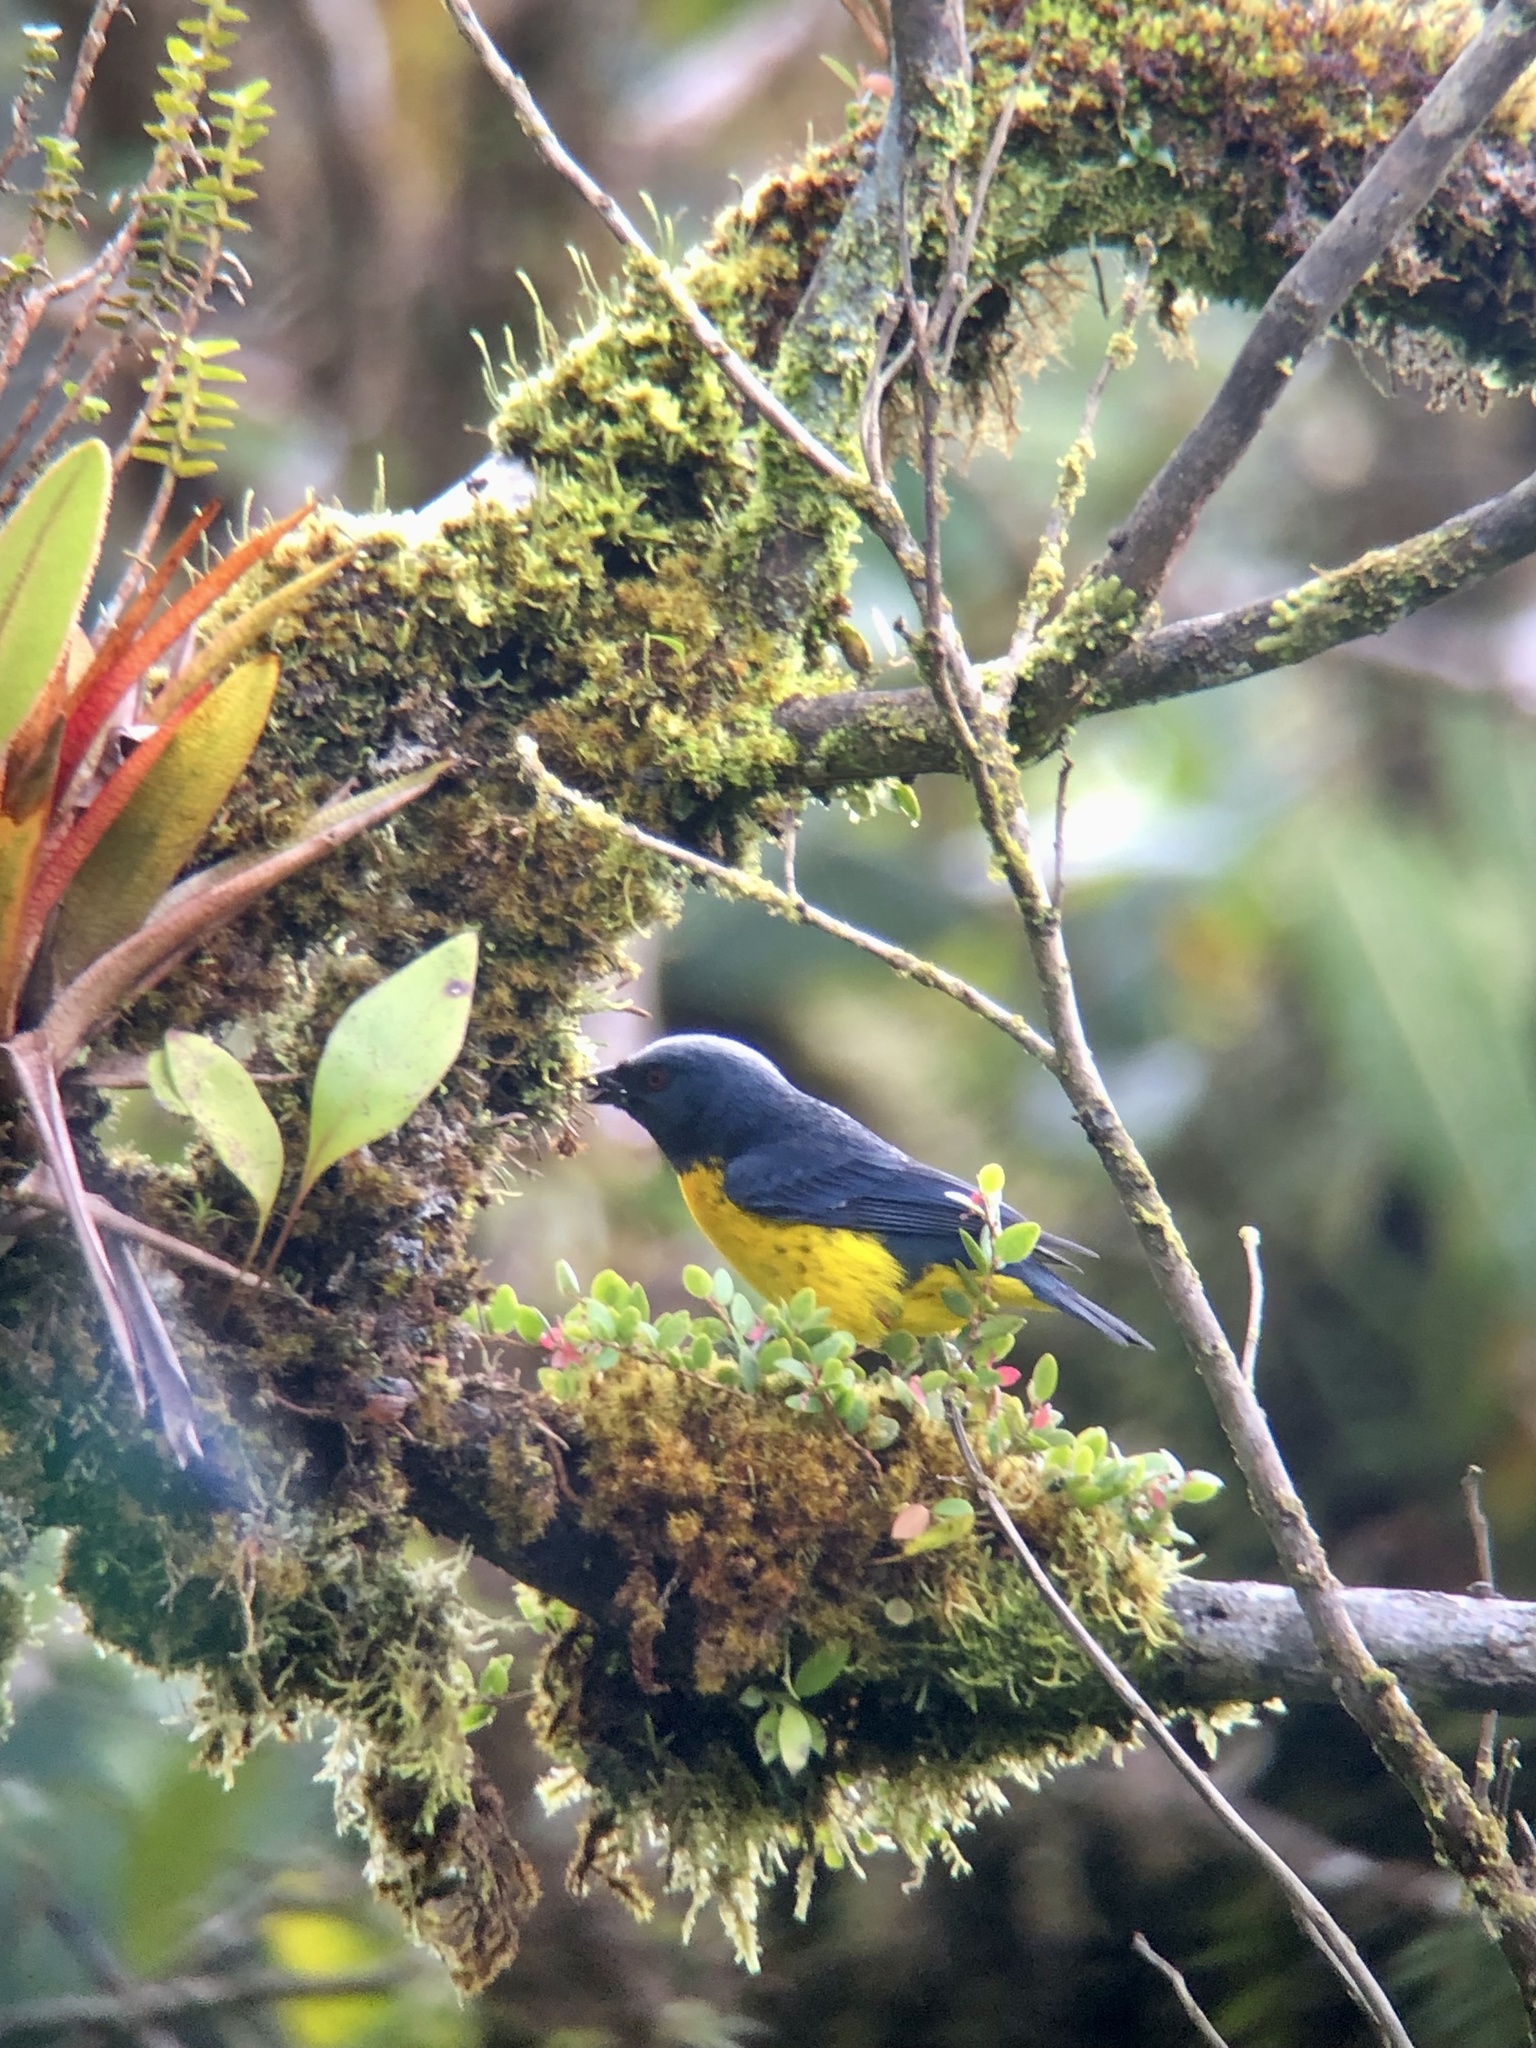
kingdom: Animalia
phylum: Chordata
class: Aves
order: Passeriformes
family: Thraupidae
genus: Bangsia
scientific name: Bangsia arcaei
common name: Blue-and-gold tanager
